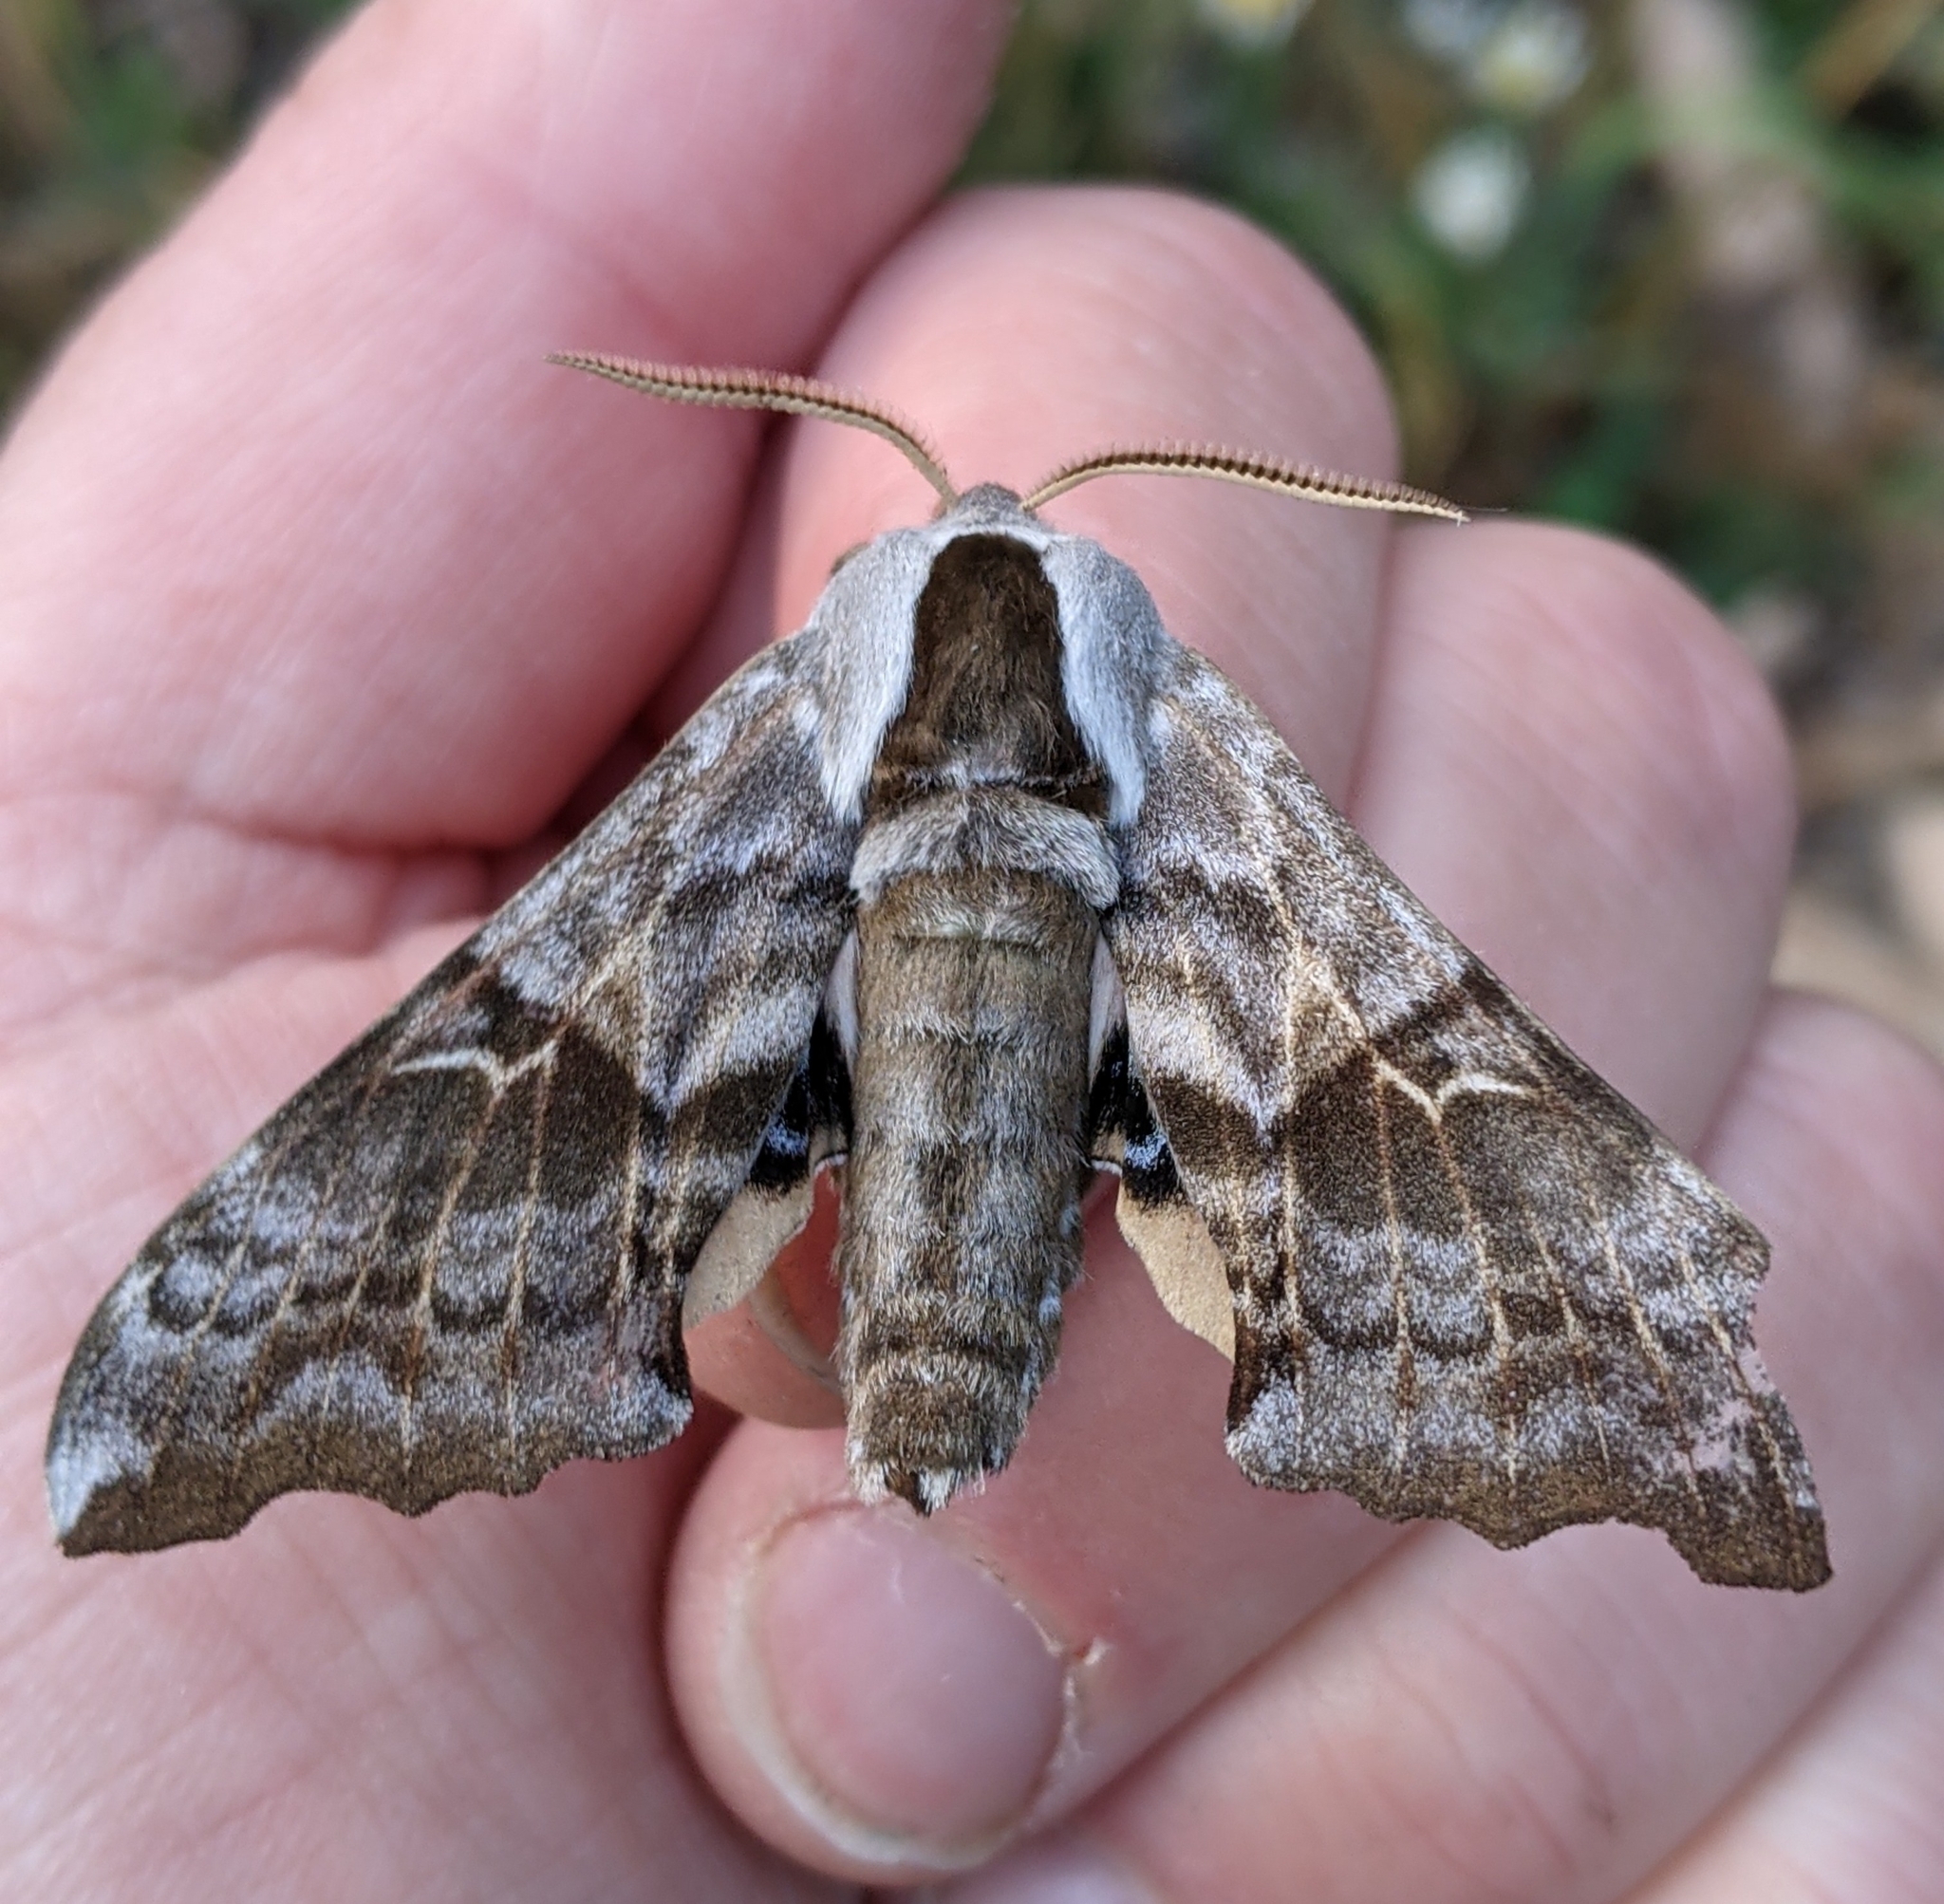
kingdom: Animalia
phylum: Arthropoda
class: Insecta
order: Lepidoptera
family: Sphingidae
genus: Smerinthus
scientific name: Smerinthus cerisyi
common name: Cerisy's sphinx moth
